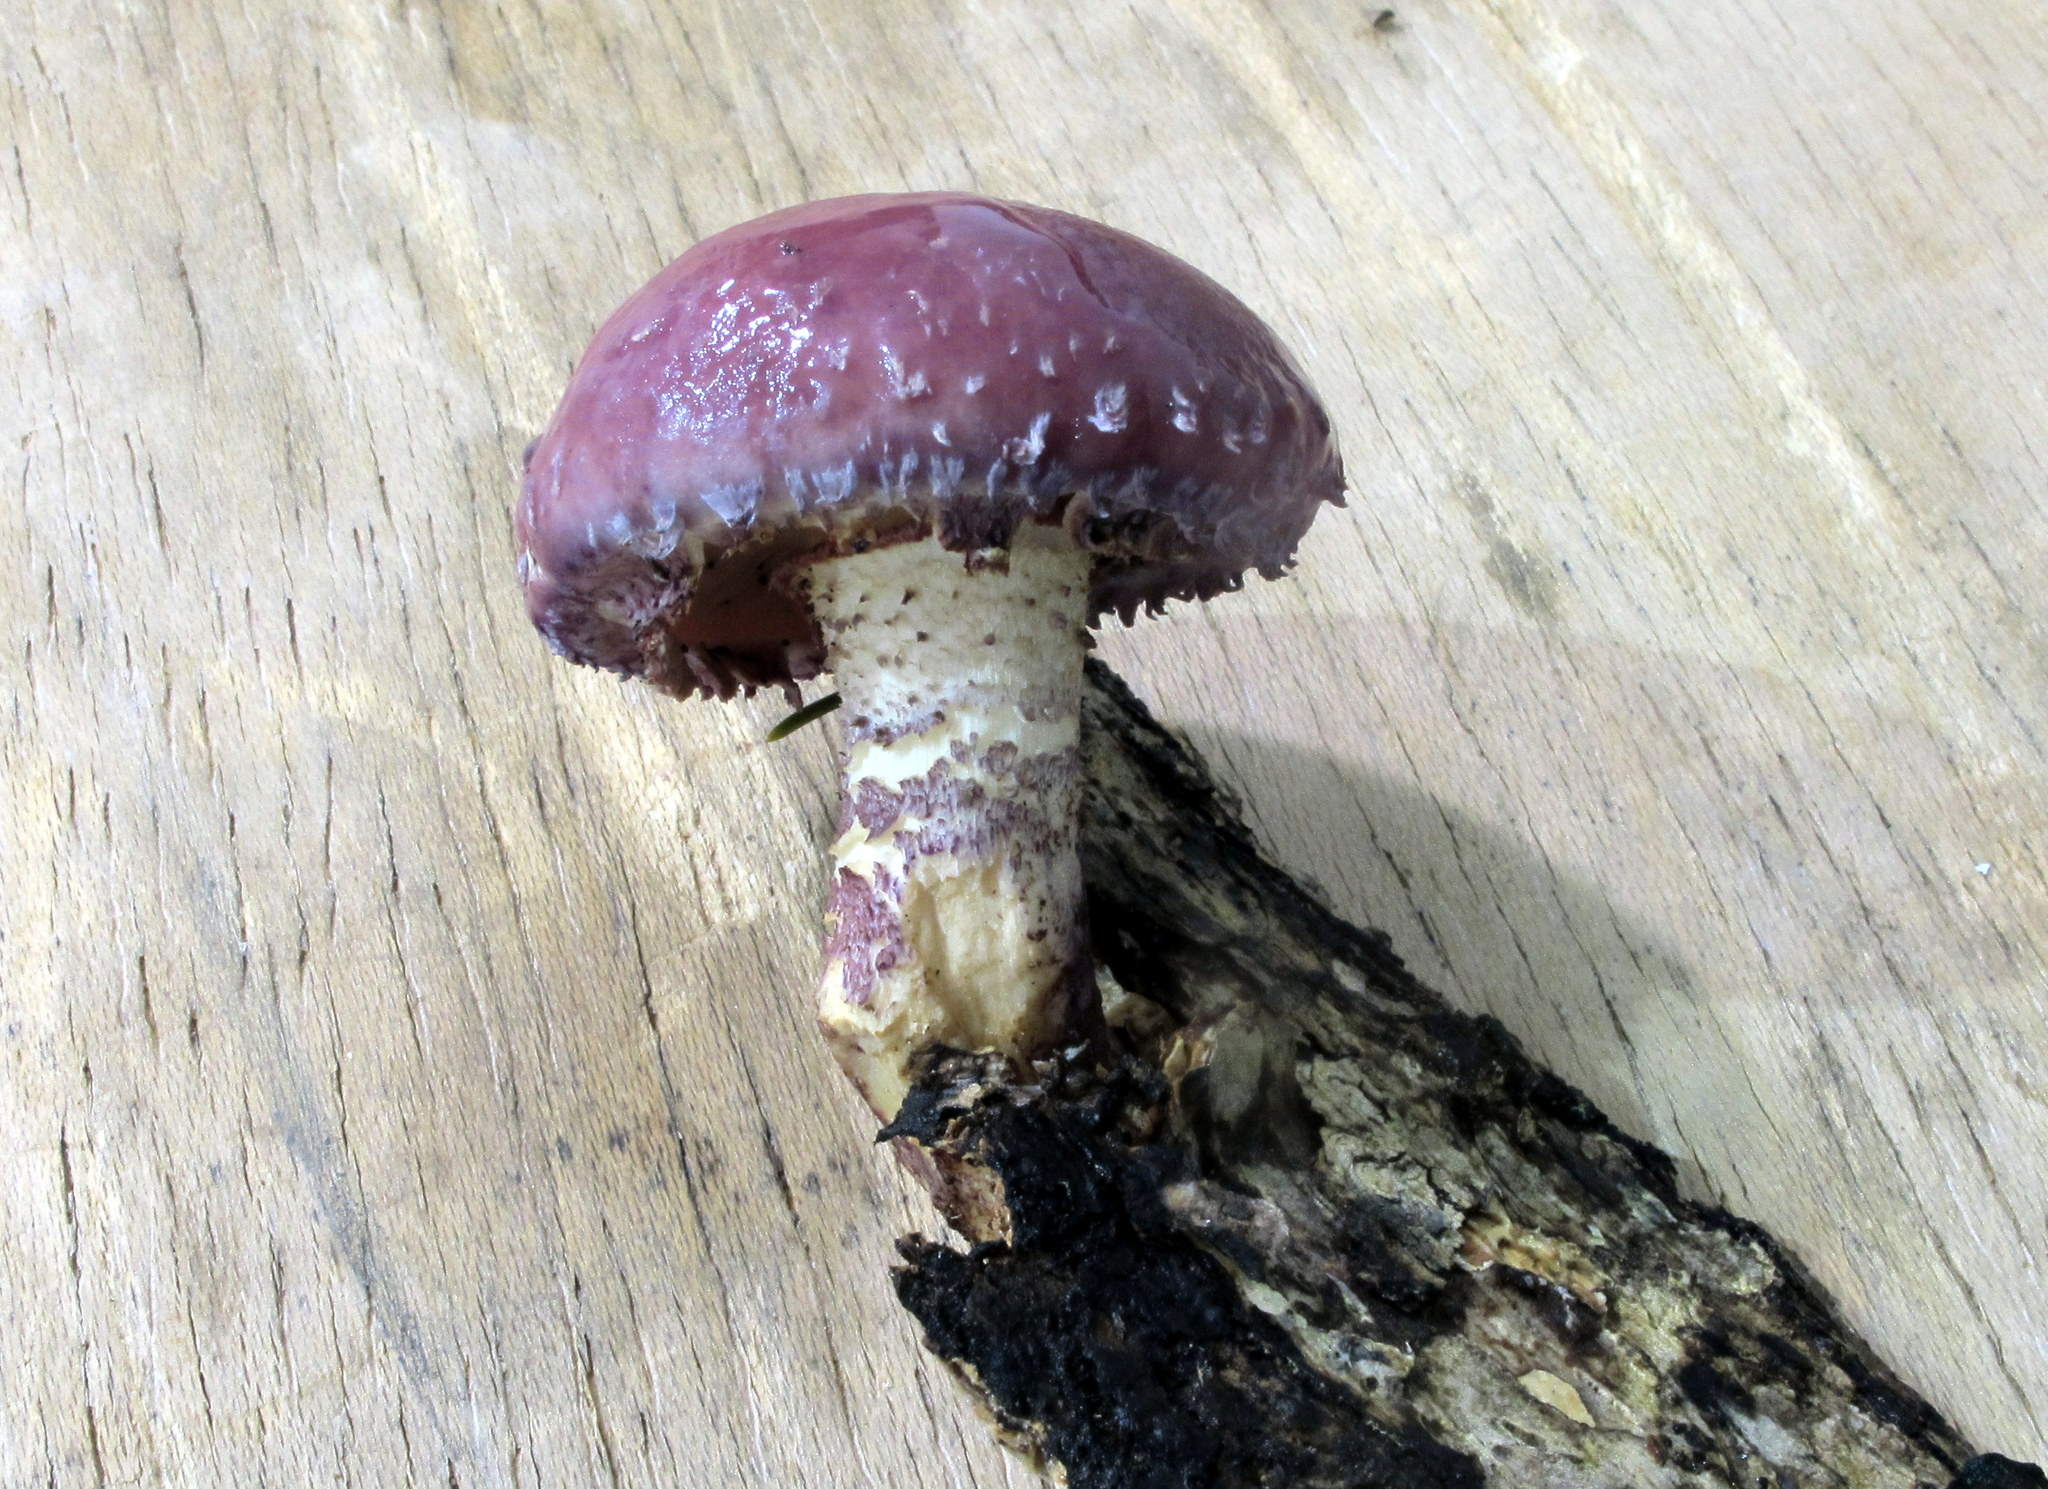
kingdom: Fungi
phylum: Basidiomycota
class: Agaricomycetes
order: Agaricales
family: Strophariaceae
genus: Pholiota
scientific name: Pholiota polychroa
